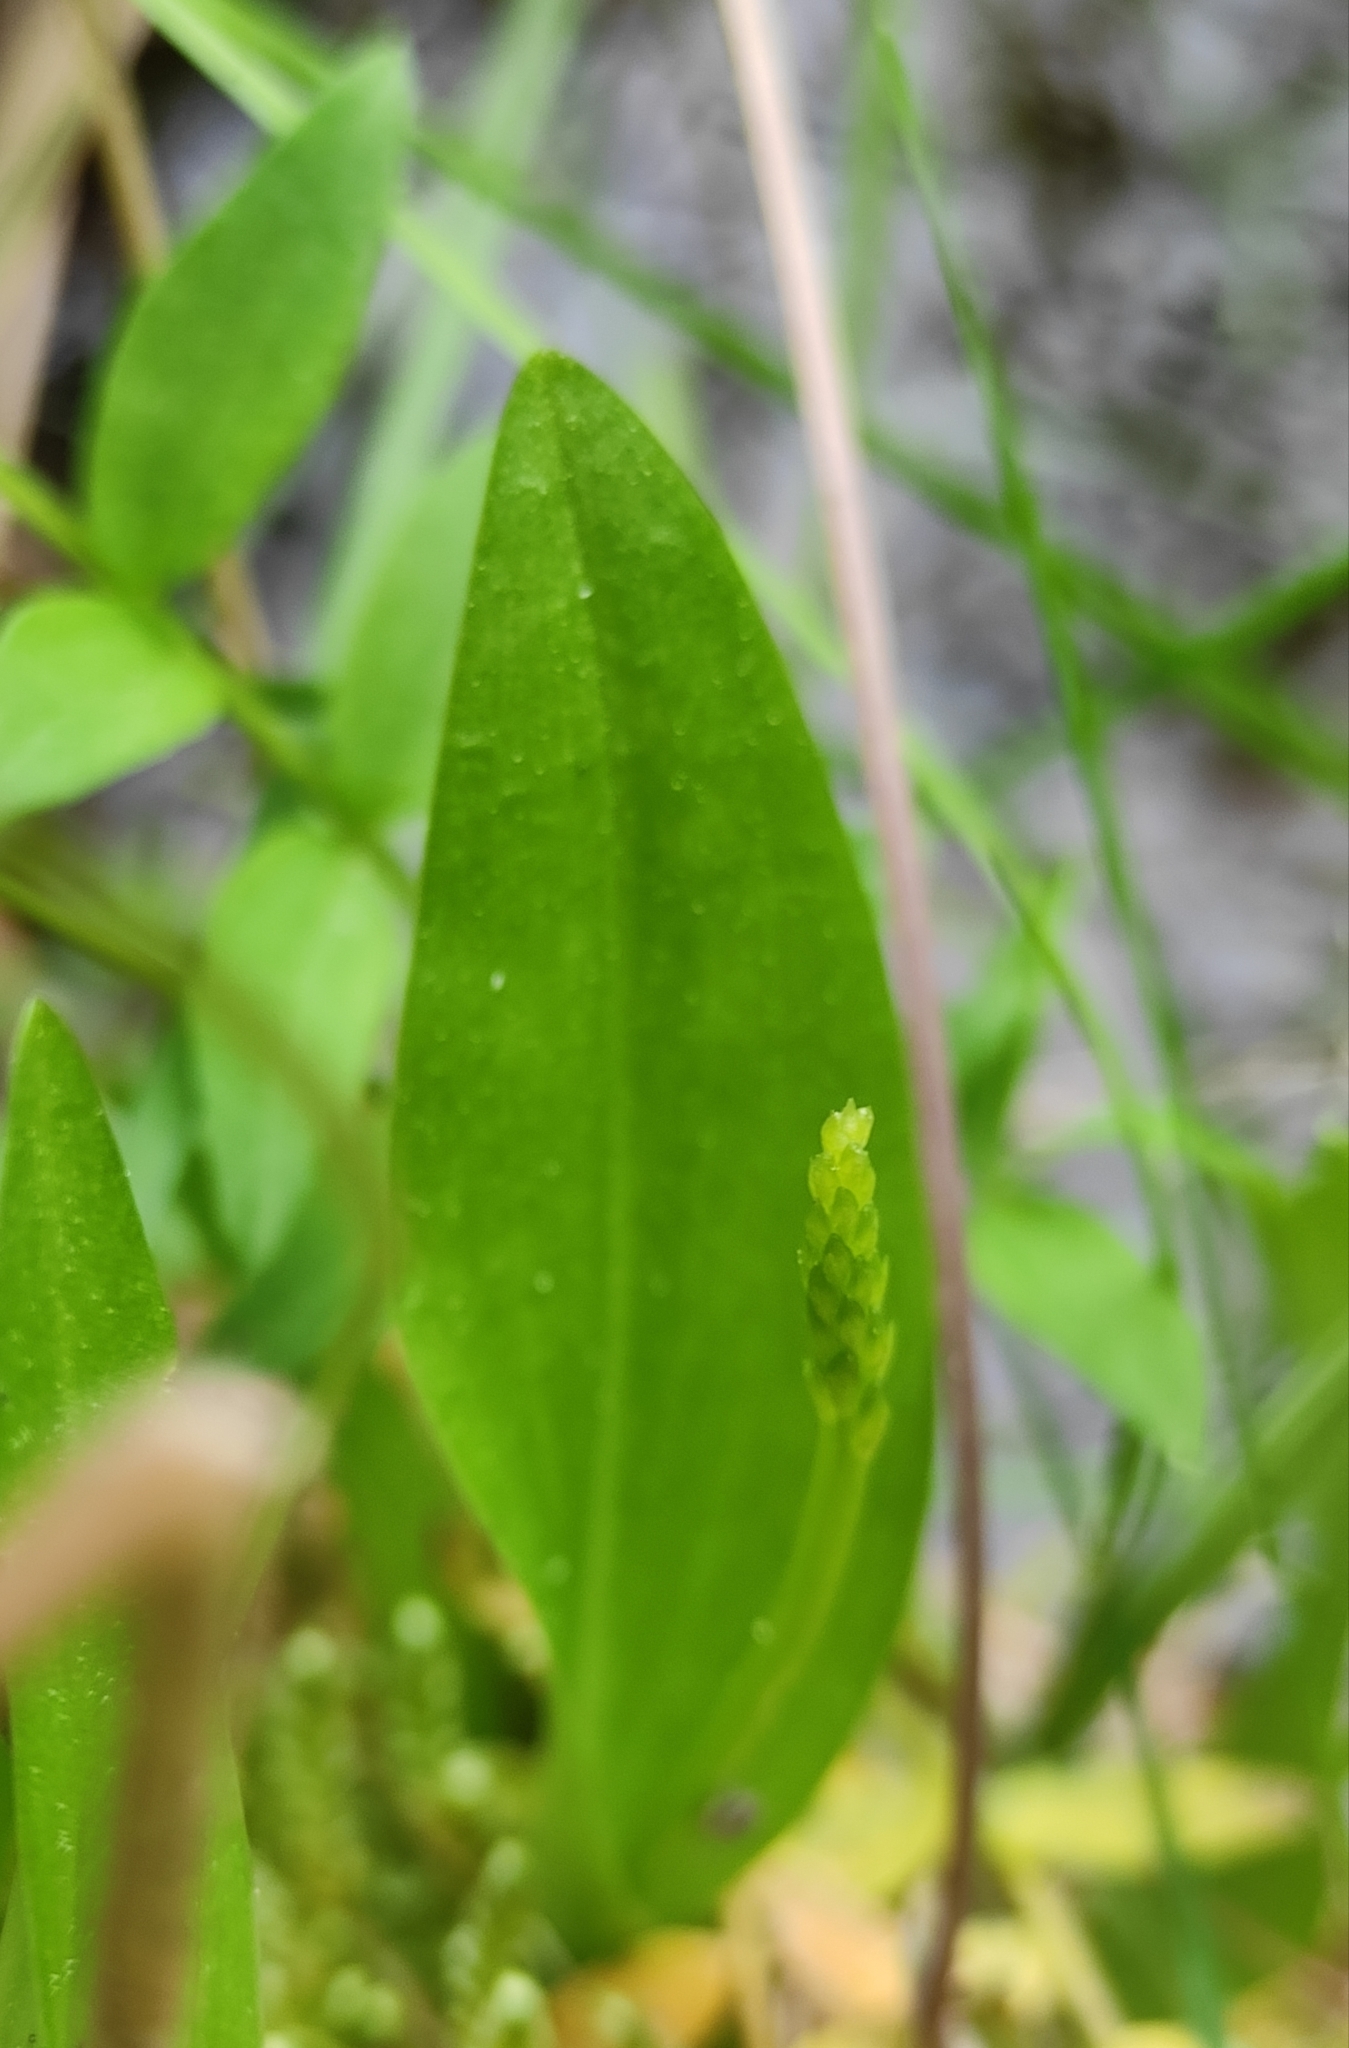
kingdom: Plantae
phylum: Tracheophyta
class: Liliopsida
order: Asparagales
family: Orchidaceae
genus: Malaxis
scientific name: Malaxis monophyllos
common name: White adder's-mouth
